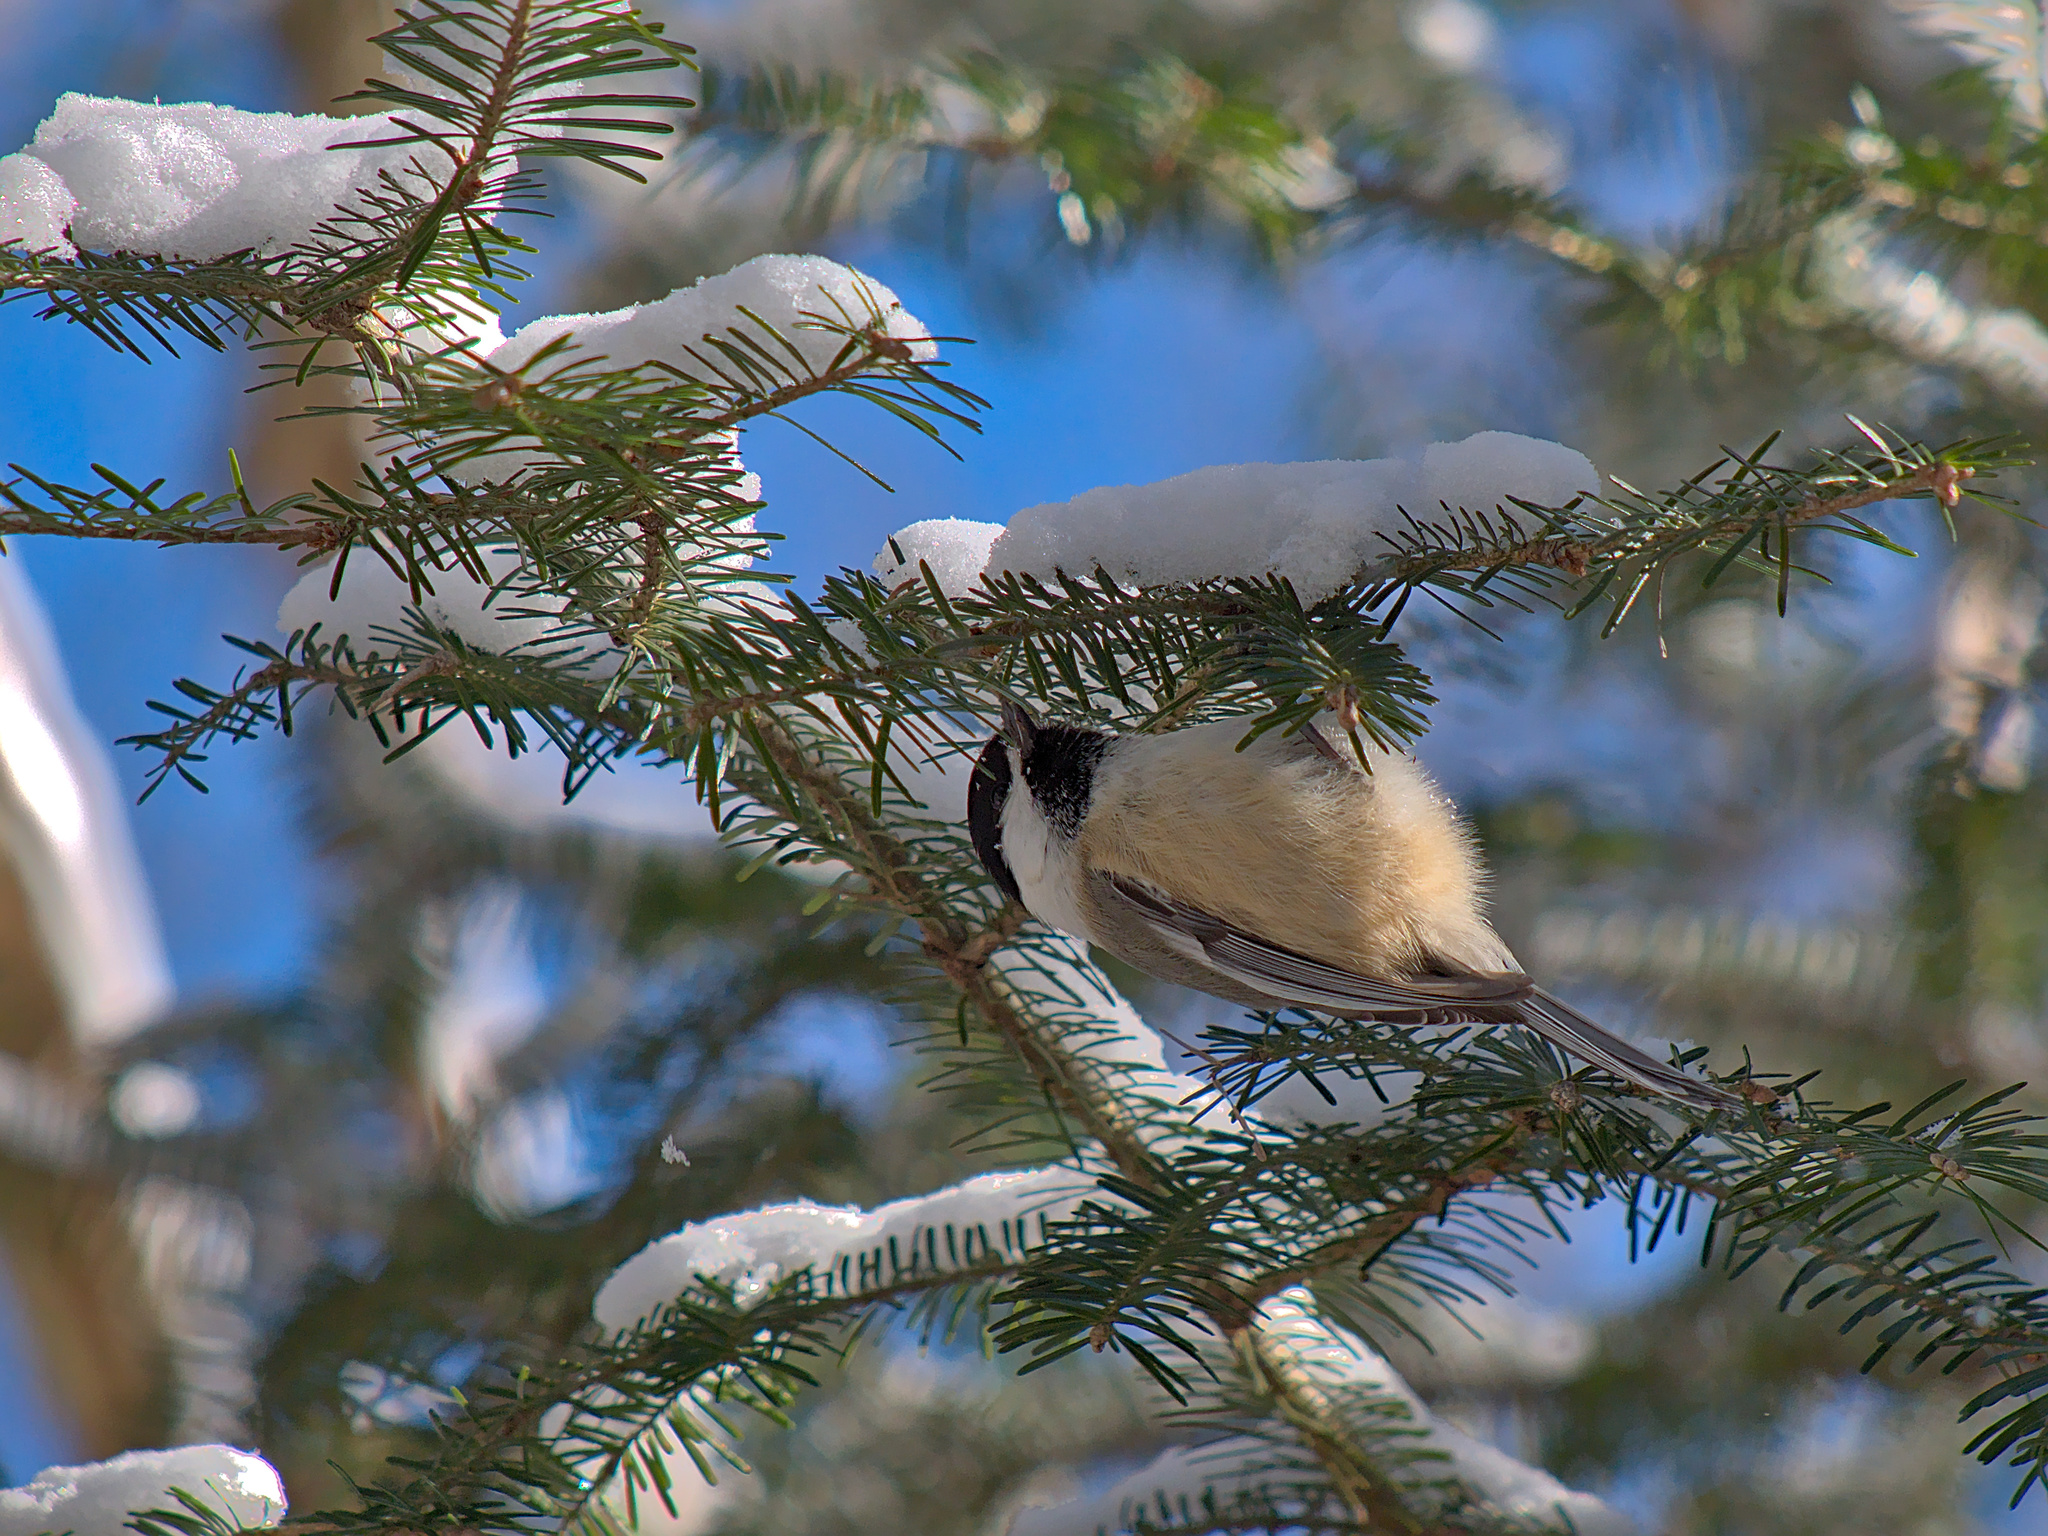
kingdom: Animalia
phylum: Chordata
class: Aves
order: Passeriformes
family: Paridae
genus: Poecile
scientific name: Poecile atricapillus
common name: Black-capped chickadee
